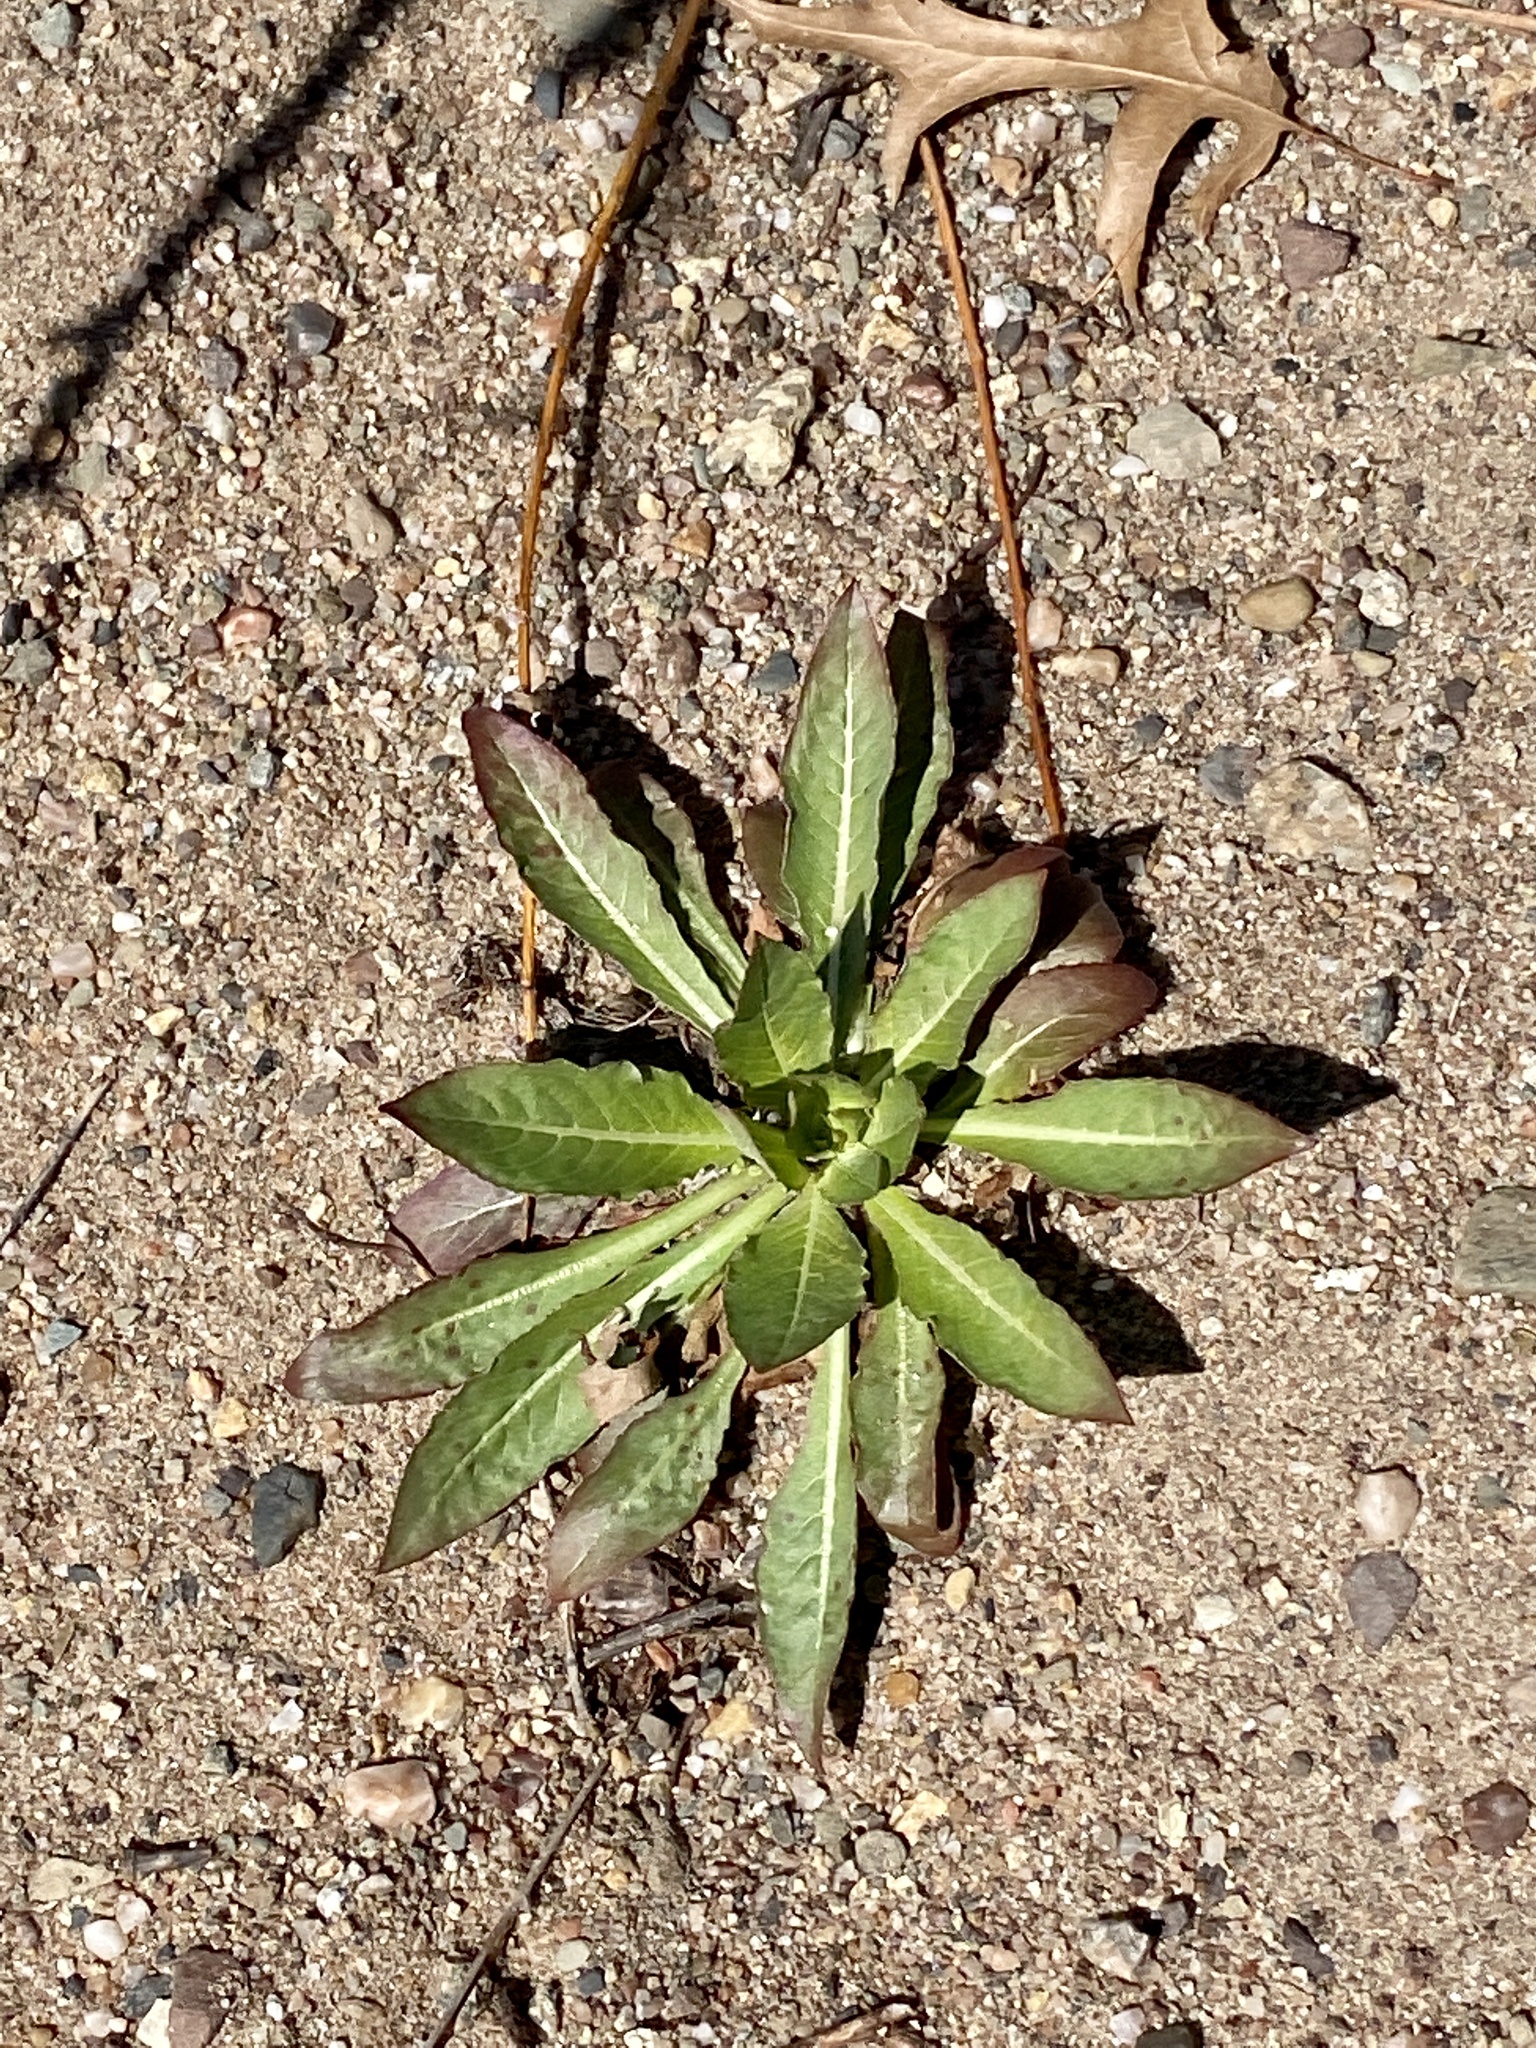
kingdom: Plantae
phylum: Tracheophyta
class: Magnoliopsida
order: Myrtales
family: Onagraceae
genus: Oenothera
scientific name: Oenothera biennis
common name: Common evening-primrose
